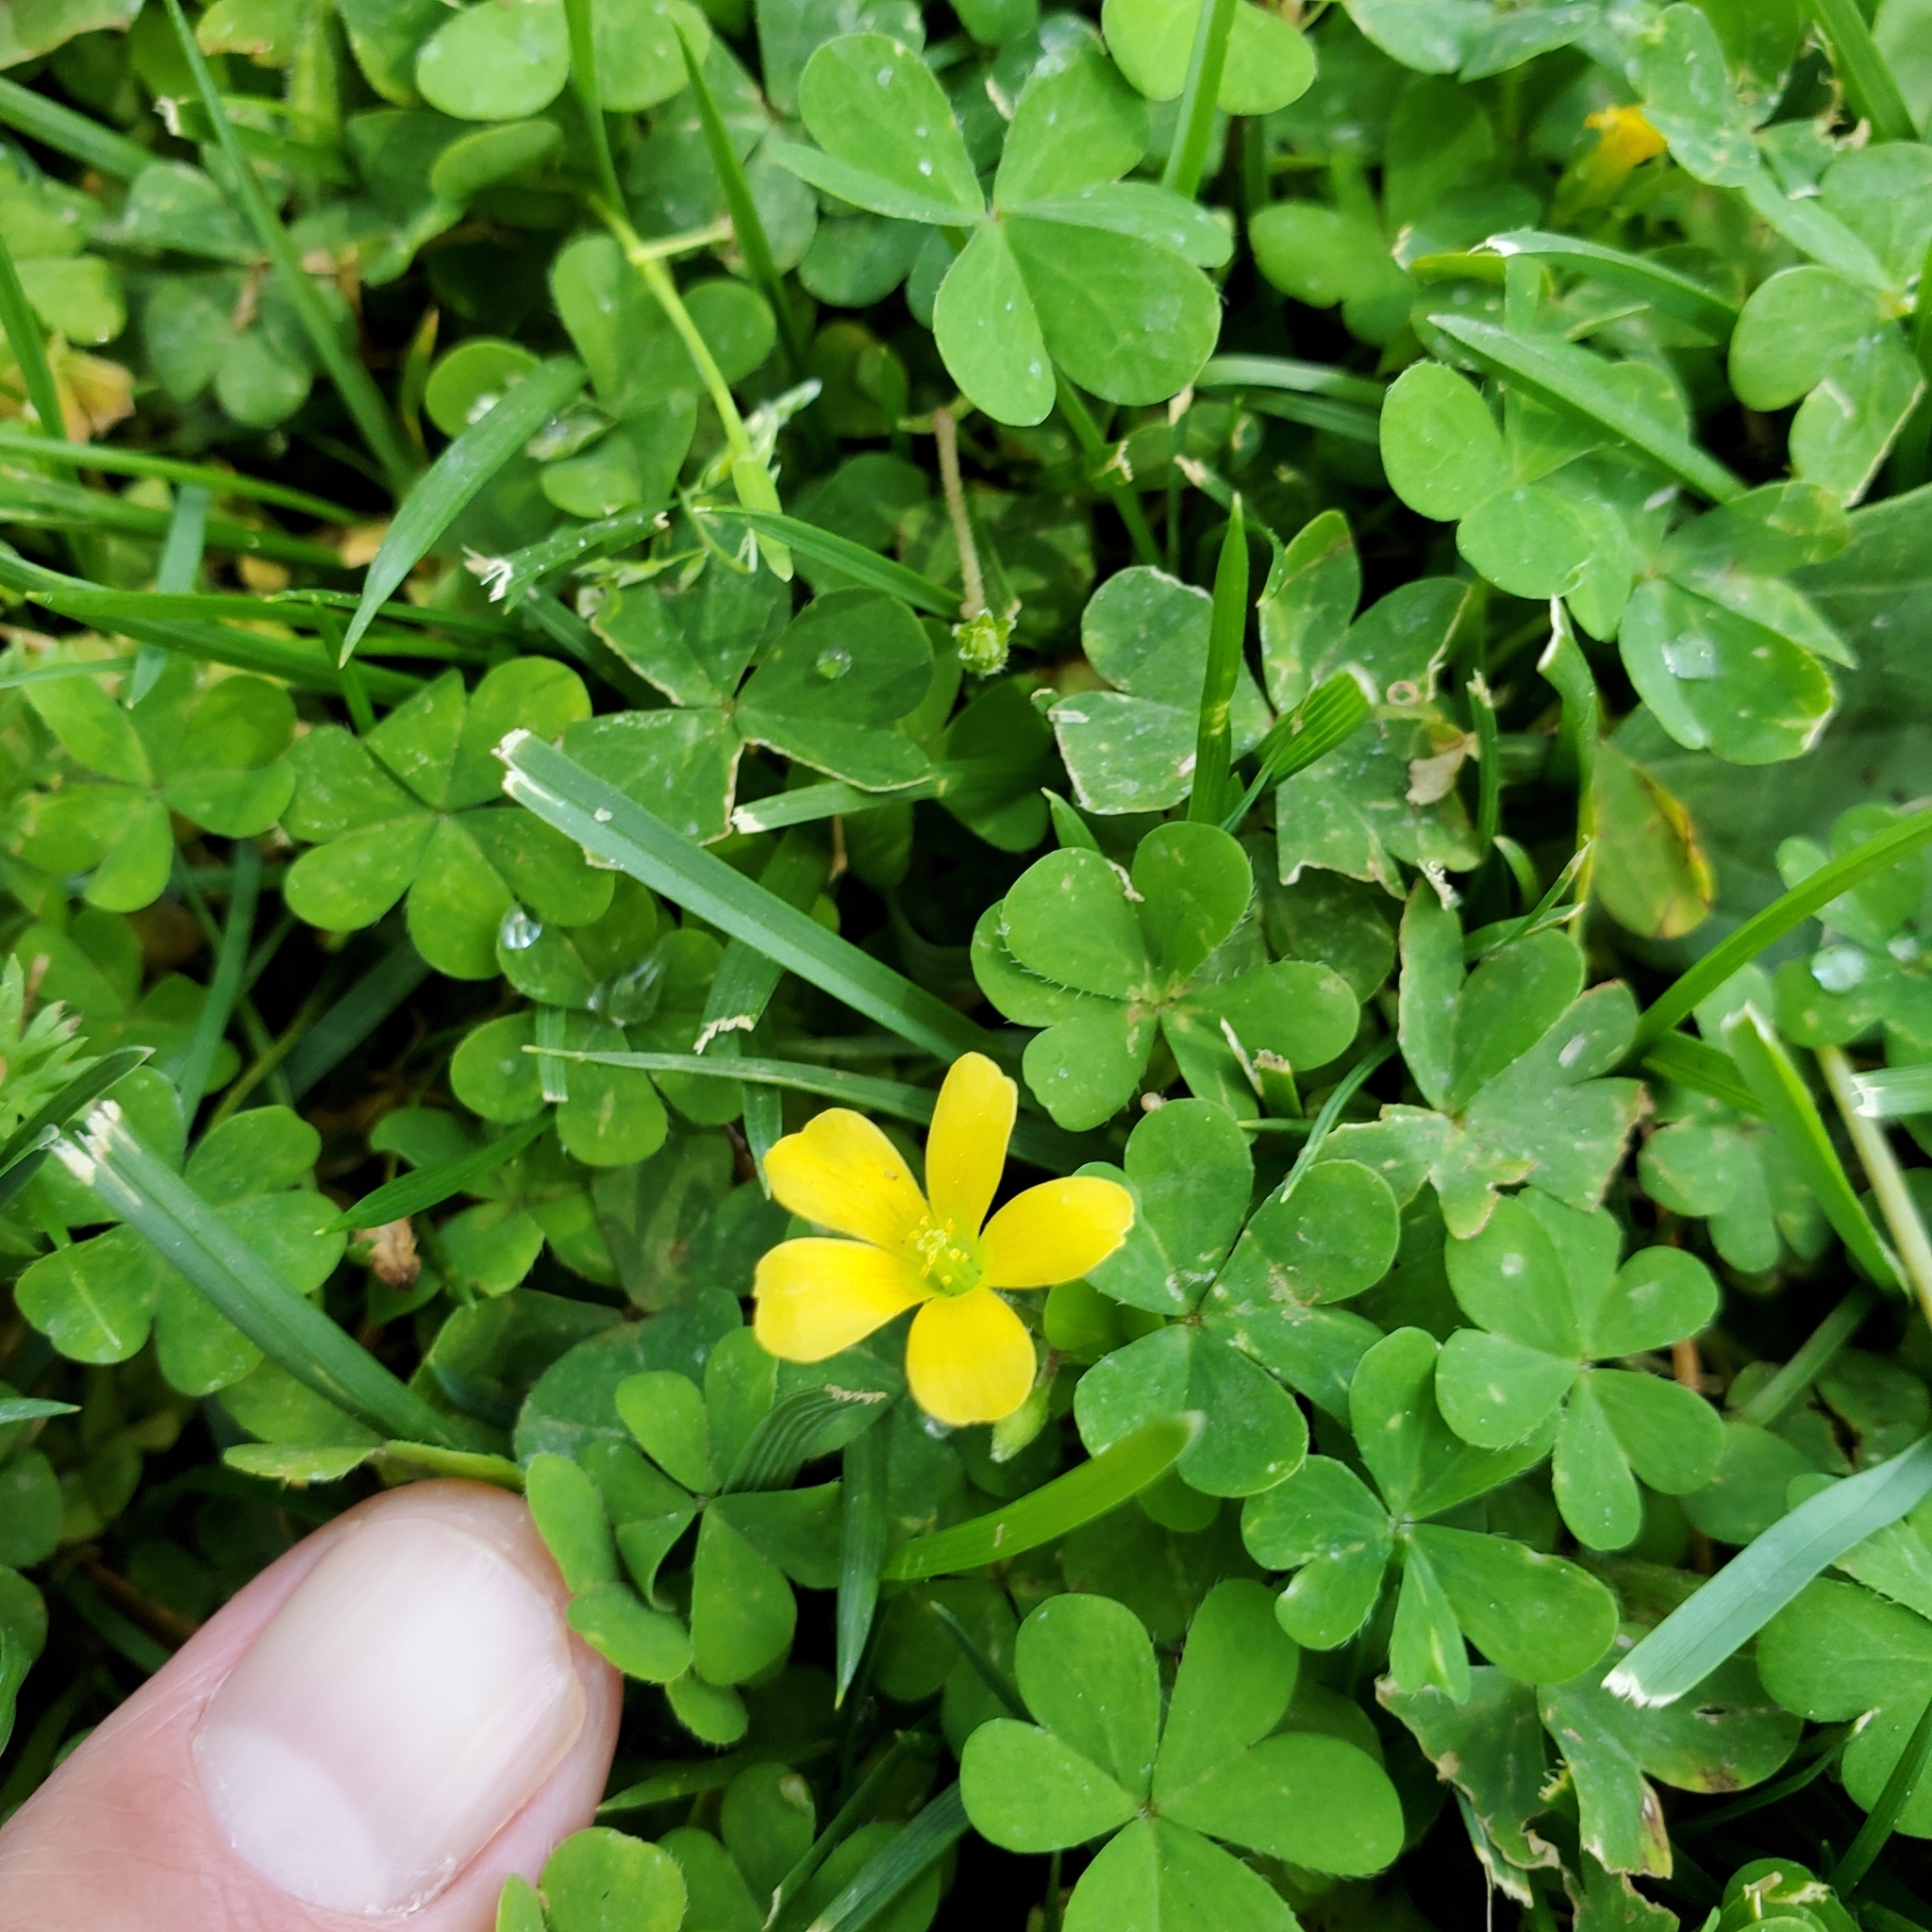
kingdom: Plantae
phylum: Tracheophyta
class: Magnoliopsida
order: Oxalidales
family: Oxalidaceae
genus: Oxalis
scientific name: Oxalis corniculata
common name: Procumbent yellow-sorrel
